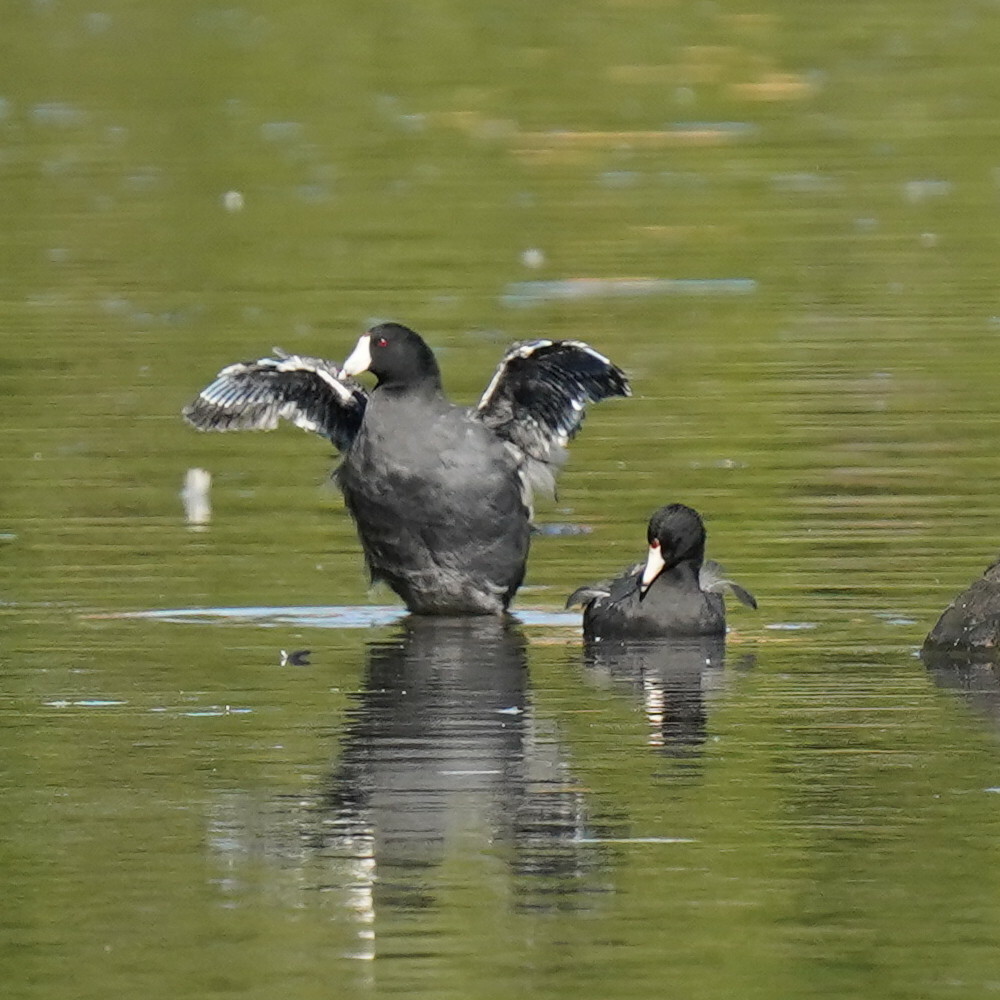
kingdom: Animalia
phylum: Chordata
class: Aves
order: Gruiformes
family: Rallidae
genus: Fulica
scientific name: Fulica americana
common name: American coot
